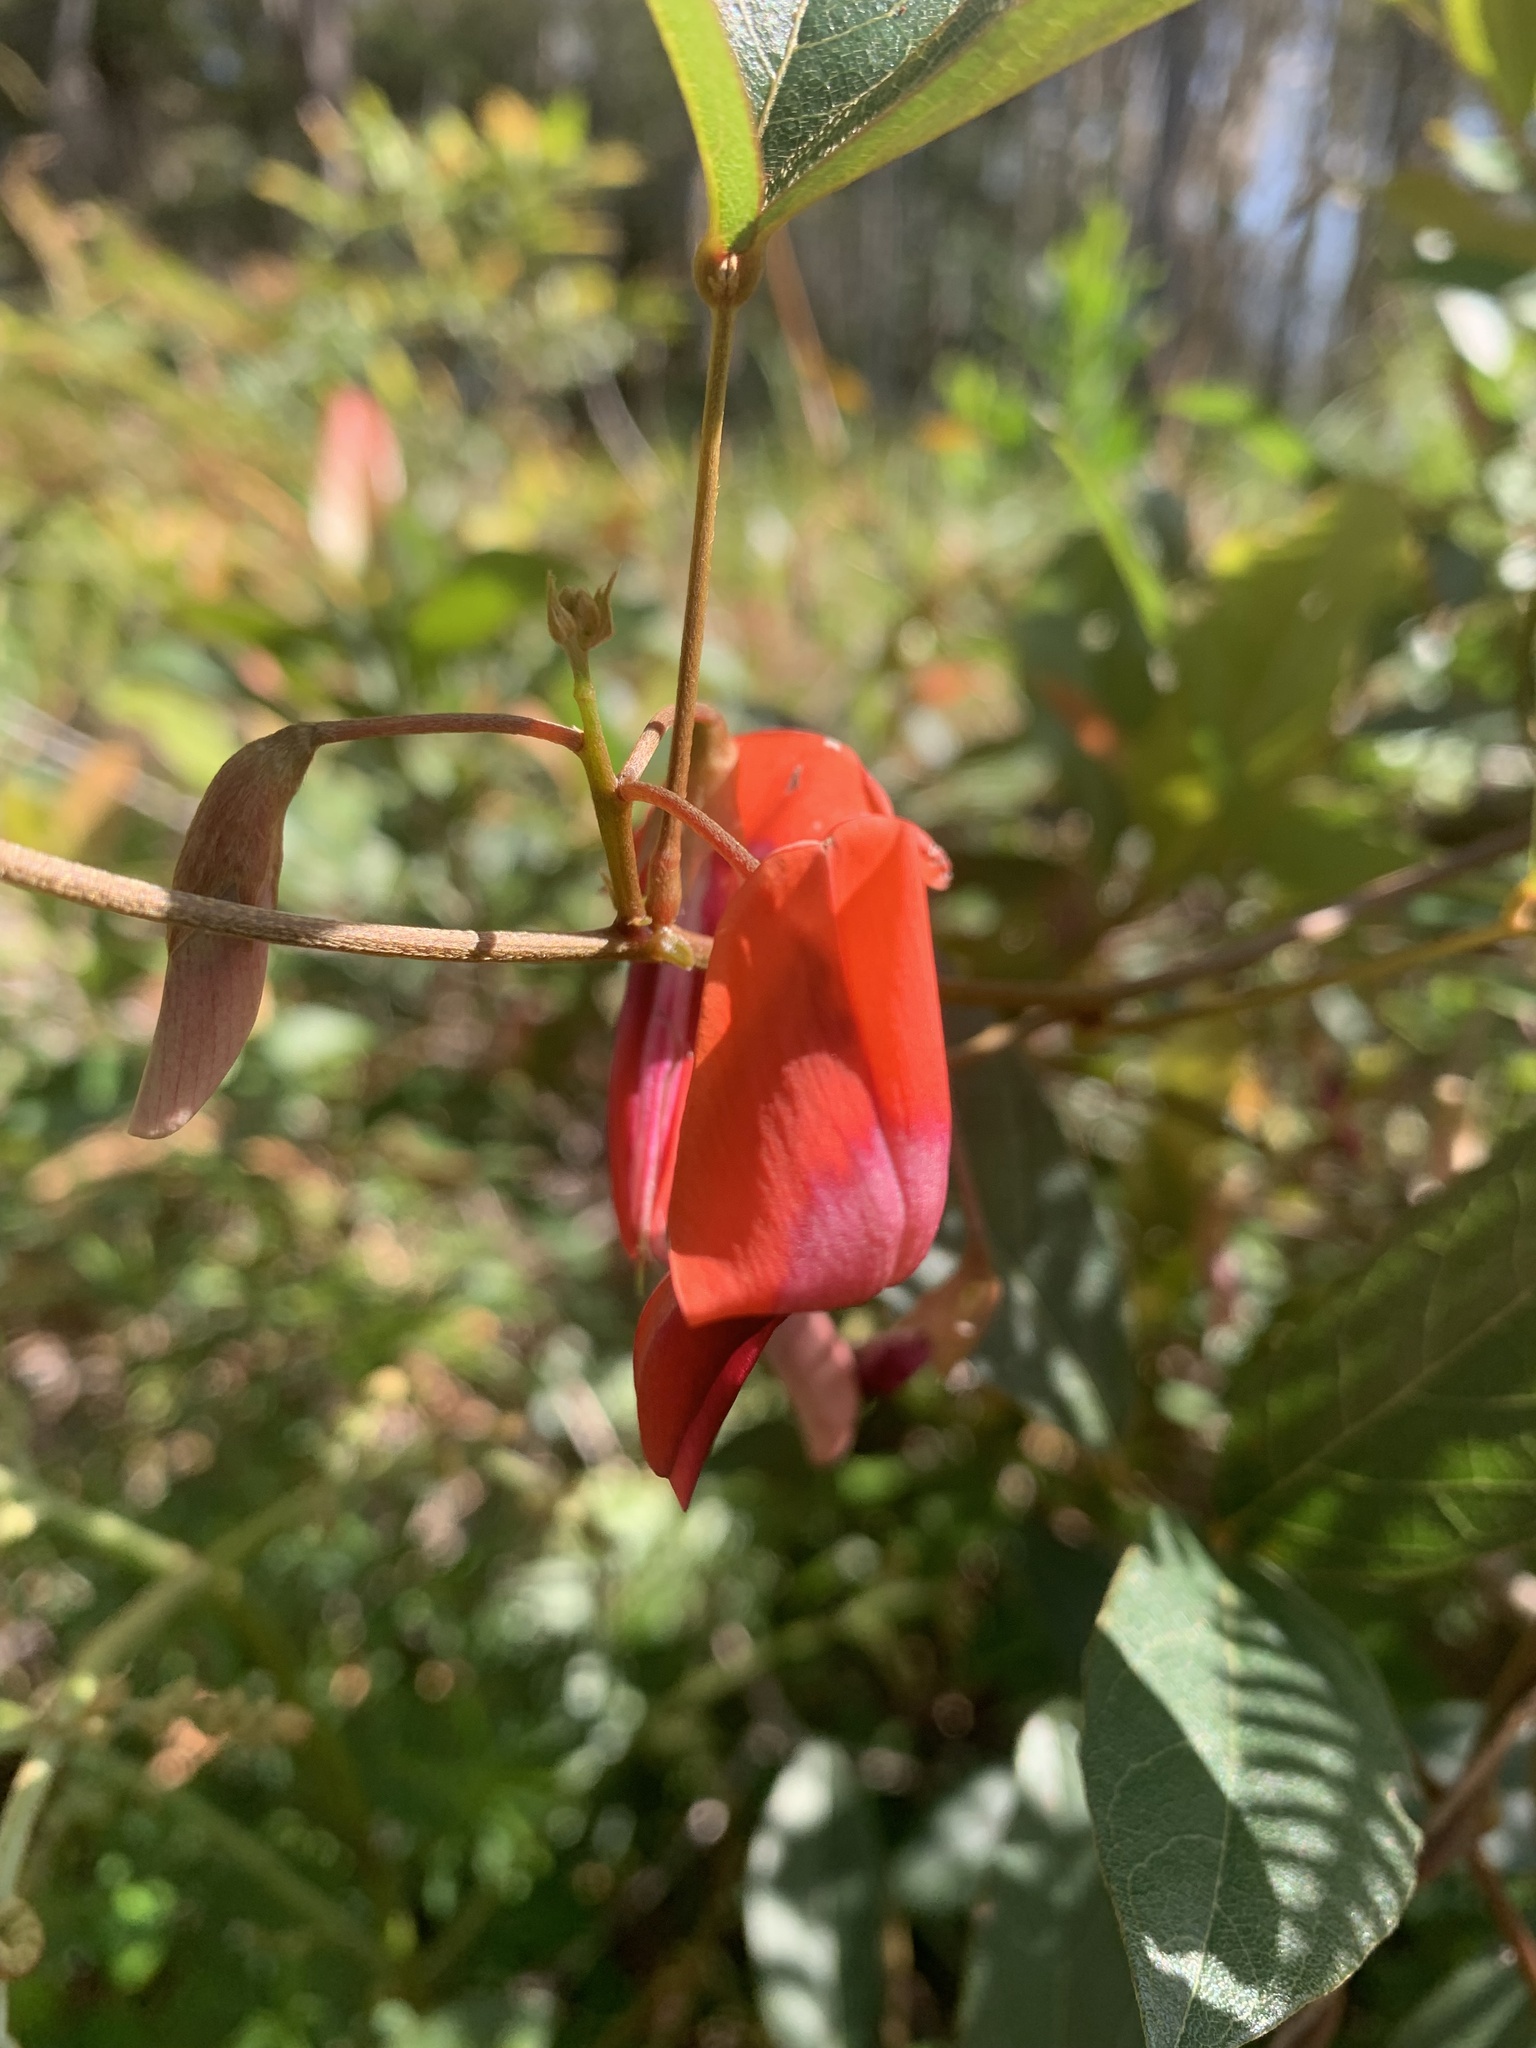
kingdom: Plantae
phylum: Tracheophyta
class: Magnoliopsida
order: Fabales
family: Fabaceae
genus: Kennedia
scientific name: Kennedia rubicunda
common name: Red kennedy-pea
